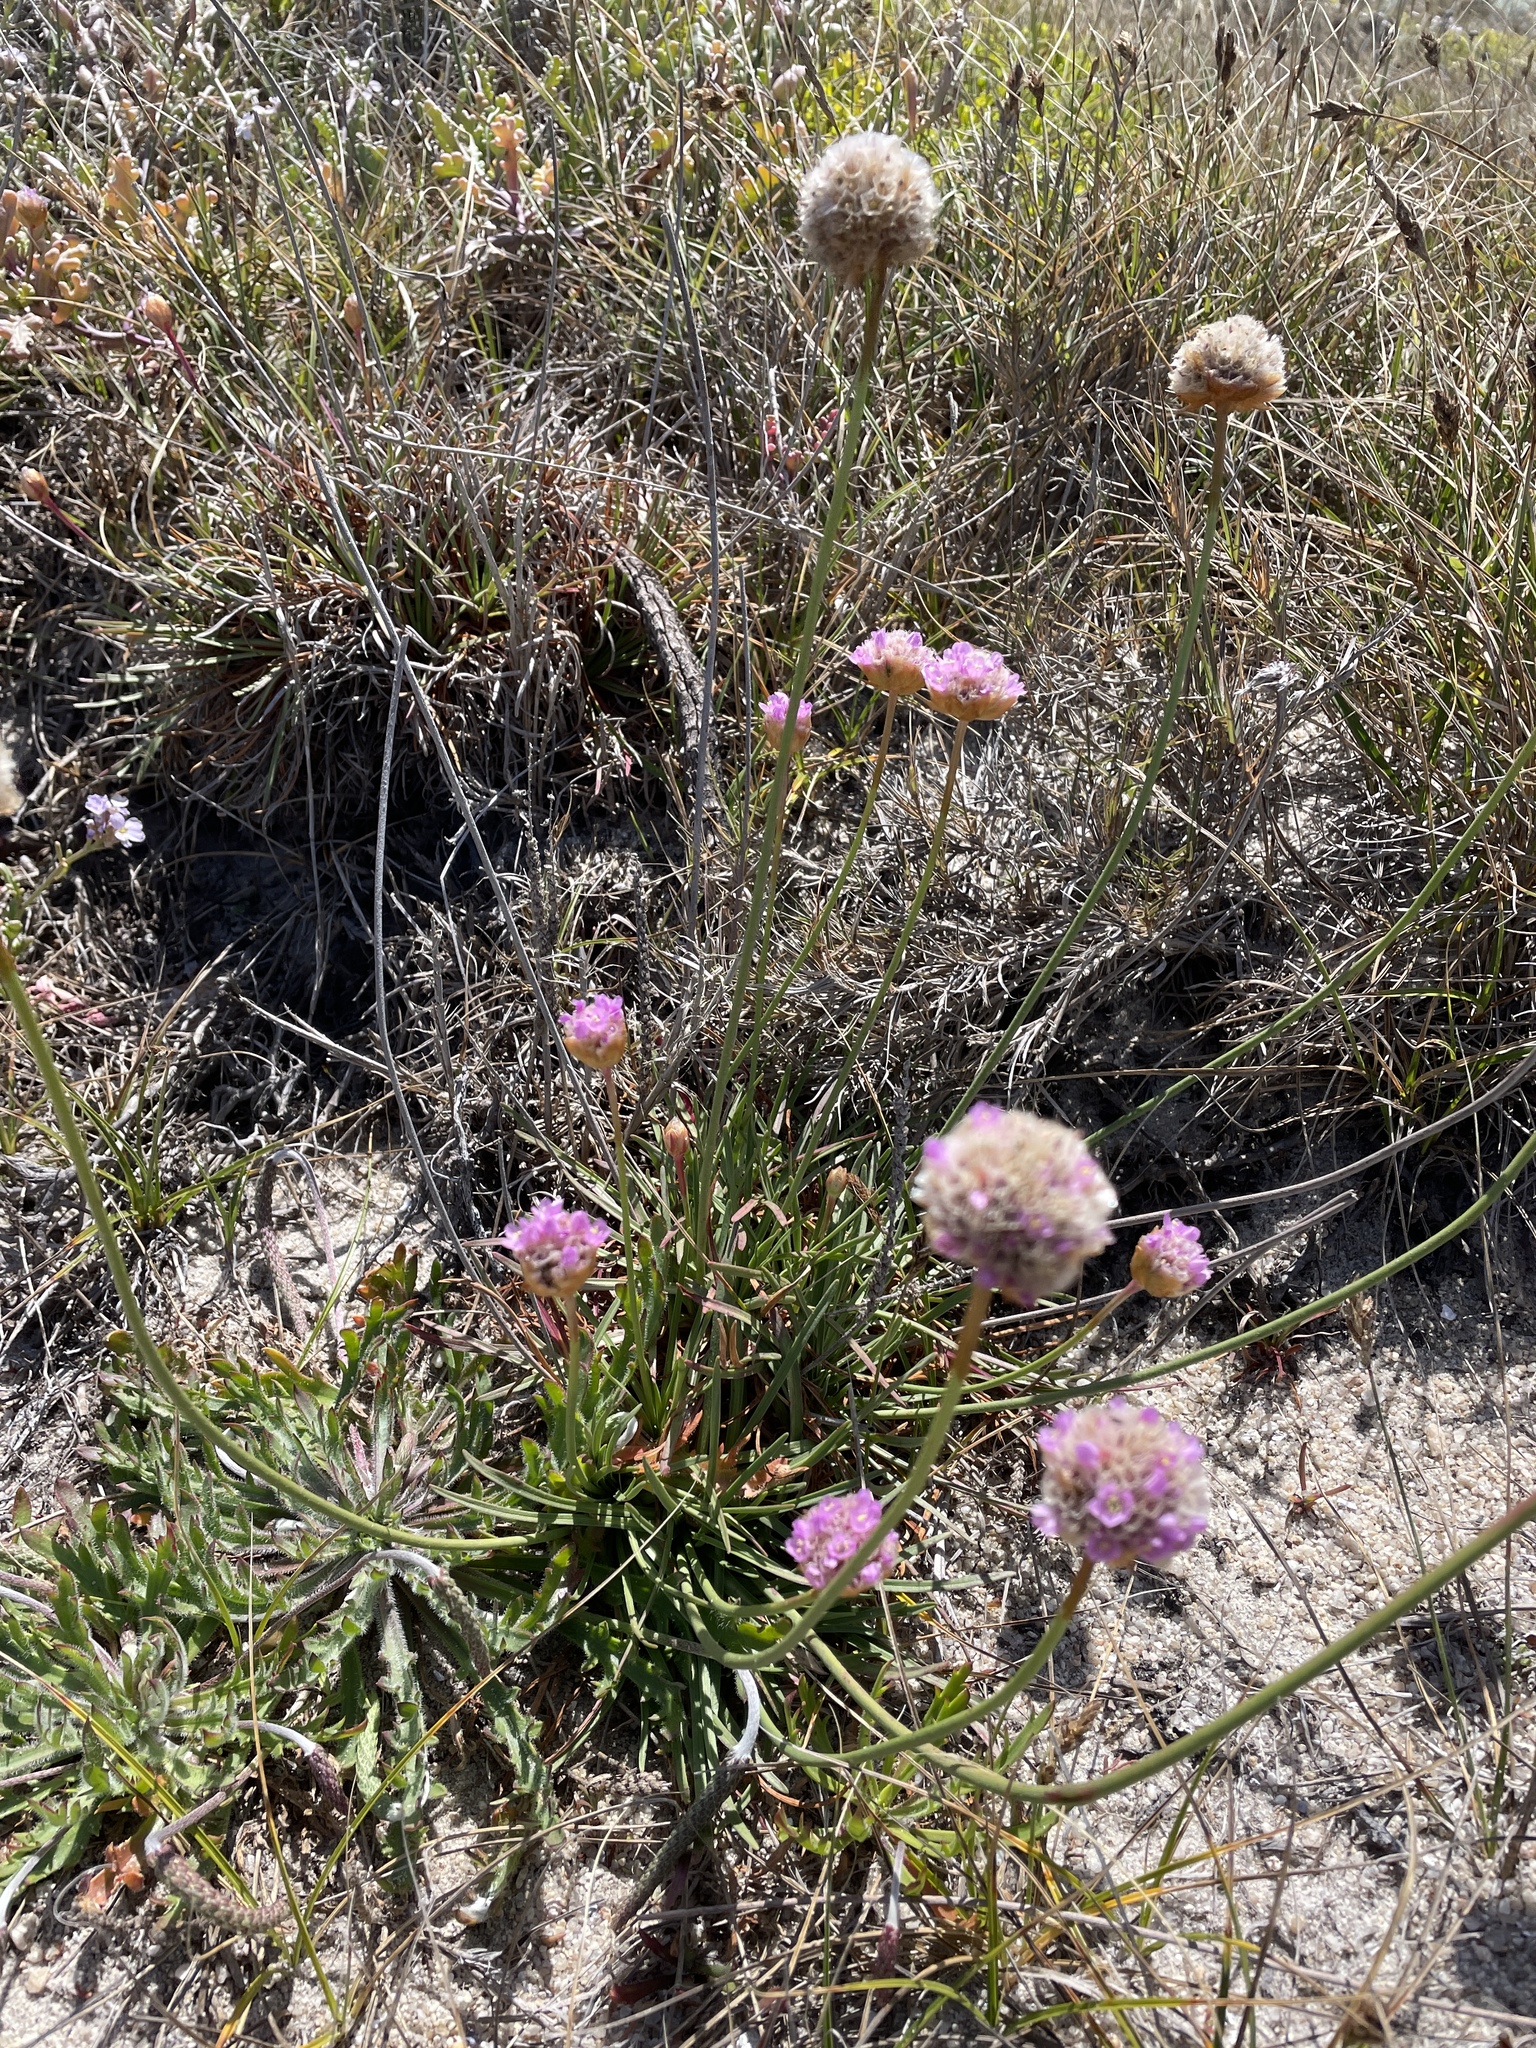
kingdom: Plantae
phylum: Tracheophyta
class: Magnoliopsida
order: Caryophyllales
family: Plumbaginaceae
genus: Armeria
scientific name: Armeria maritima
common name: Thrift
